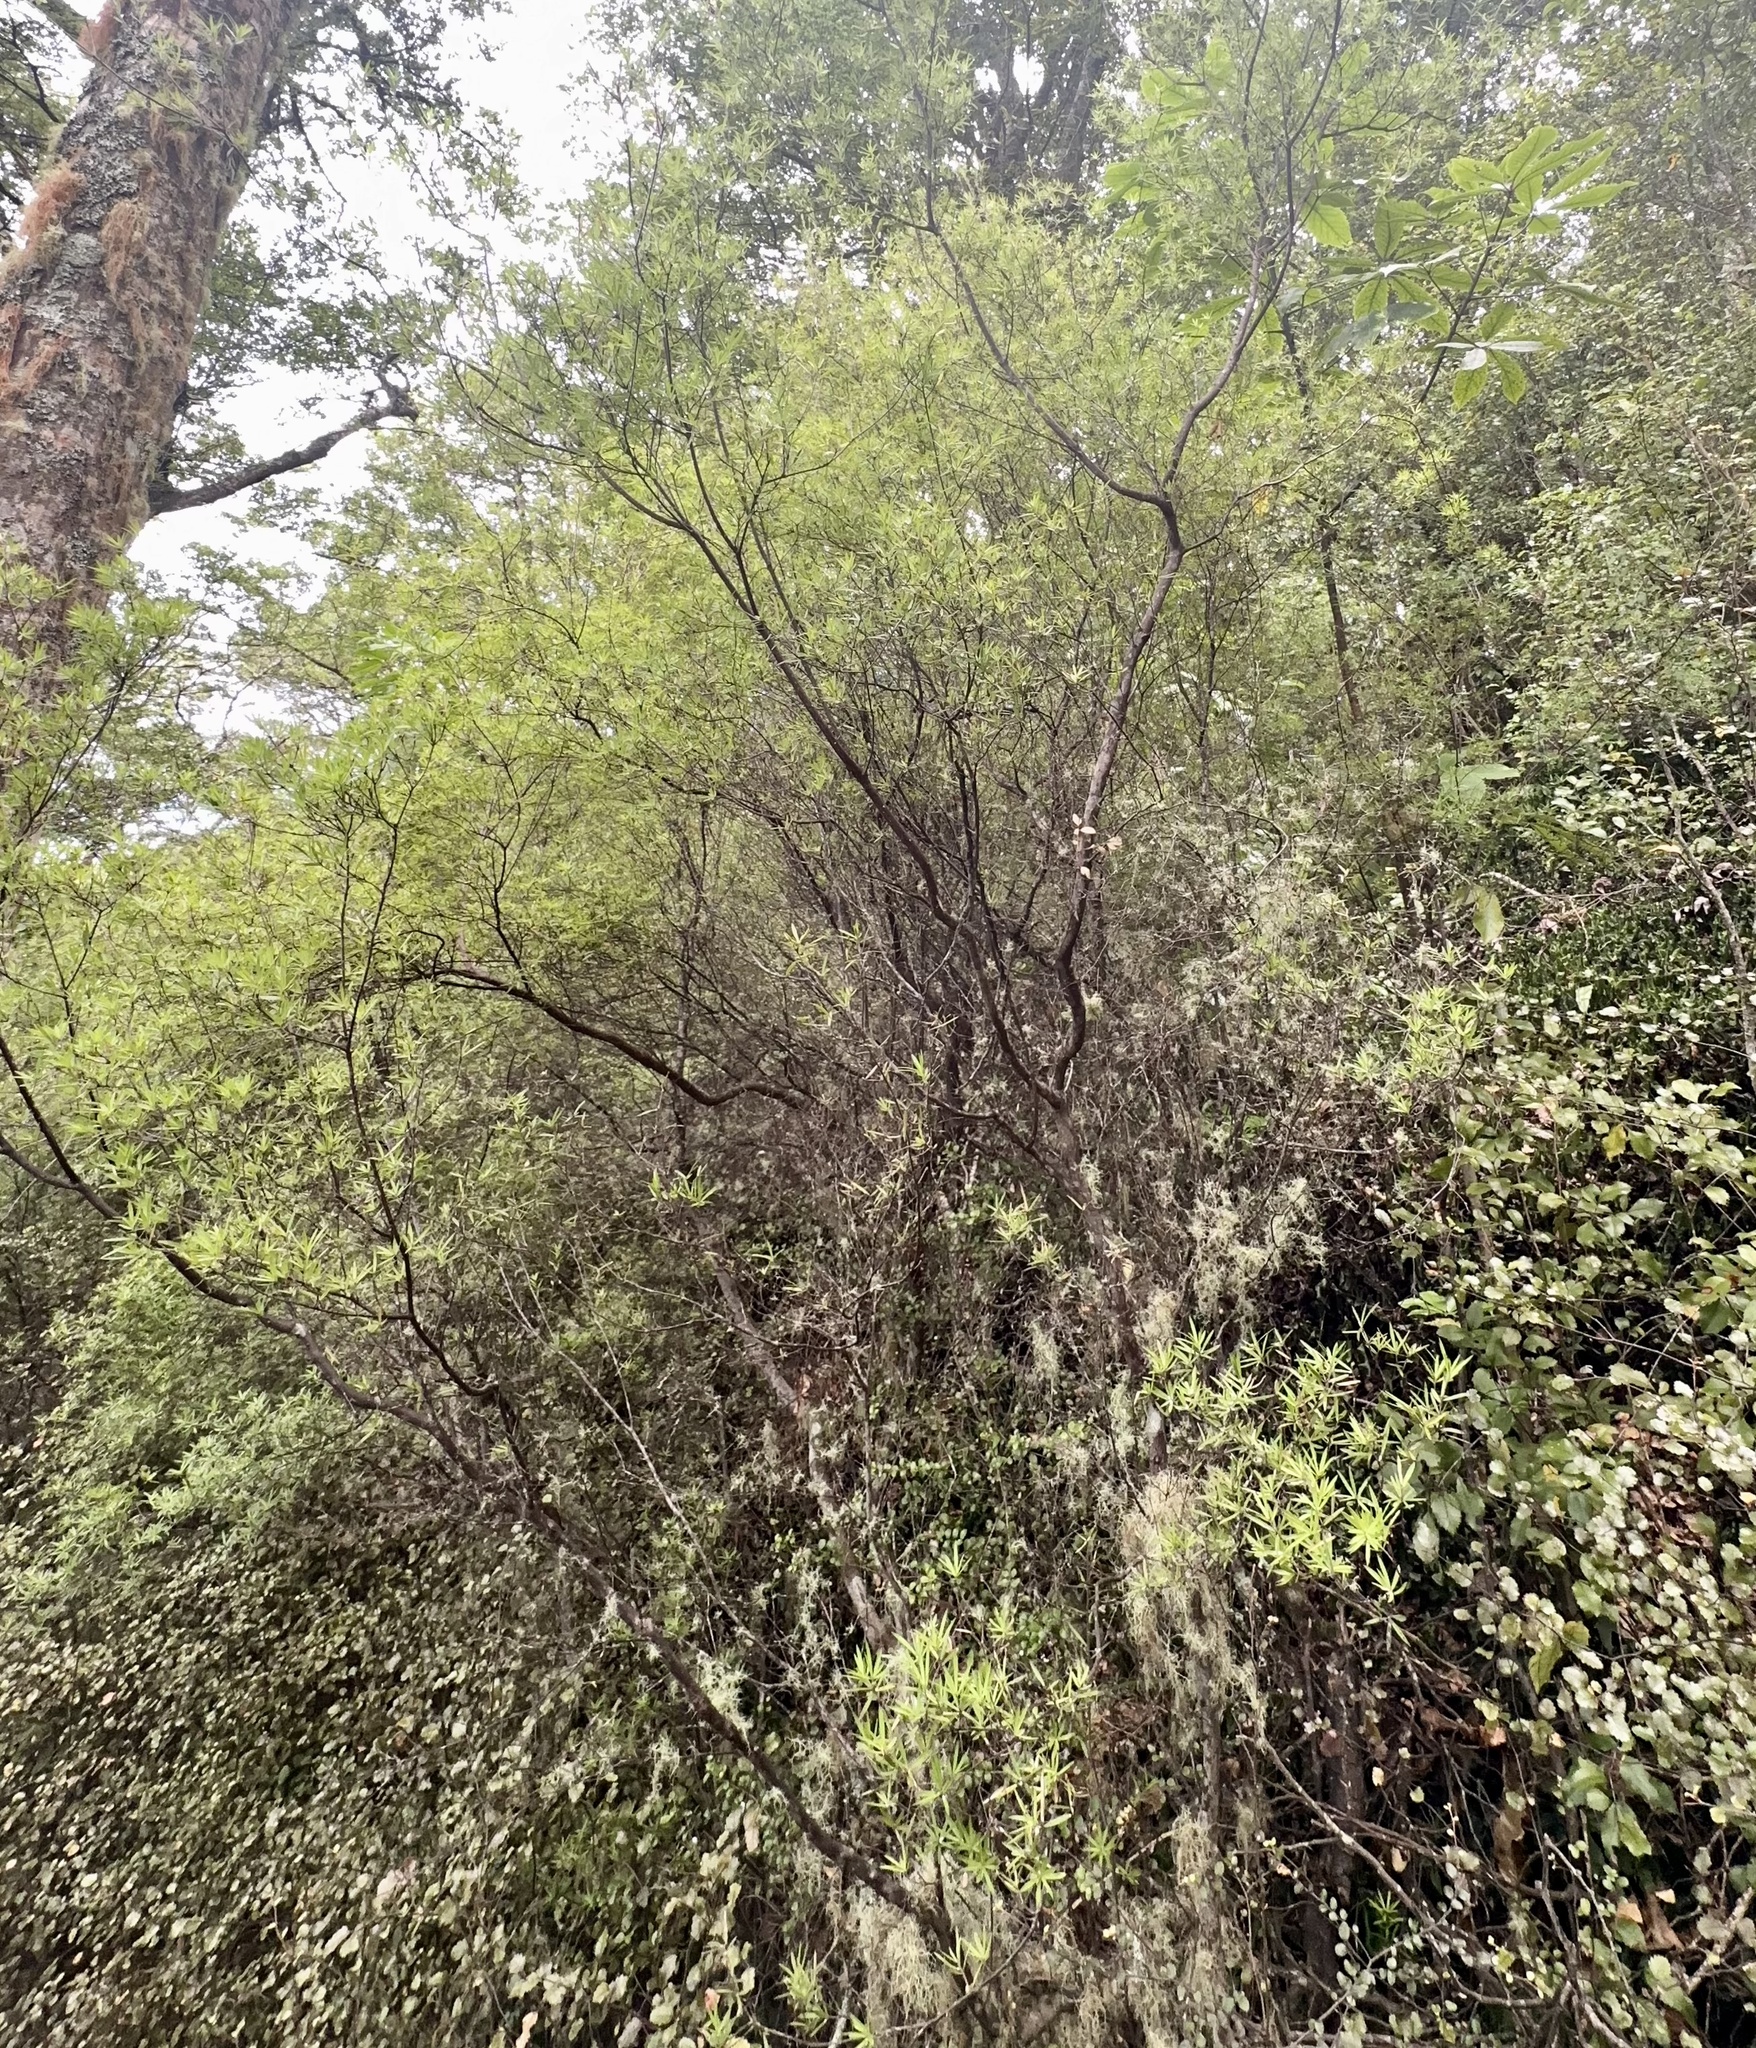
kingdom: Plantae
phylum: Tracheophyta
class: Magnoliopsida
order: Ericales
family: Ericaceae
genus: Leucopogon
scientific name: Leucopogon fasciculatus
